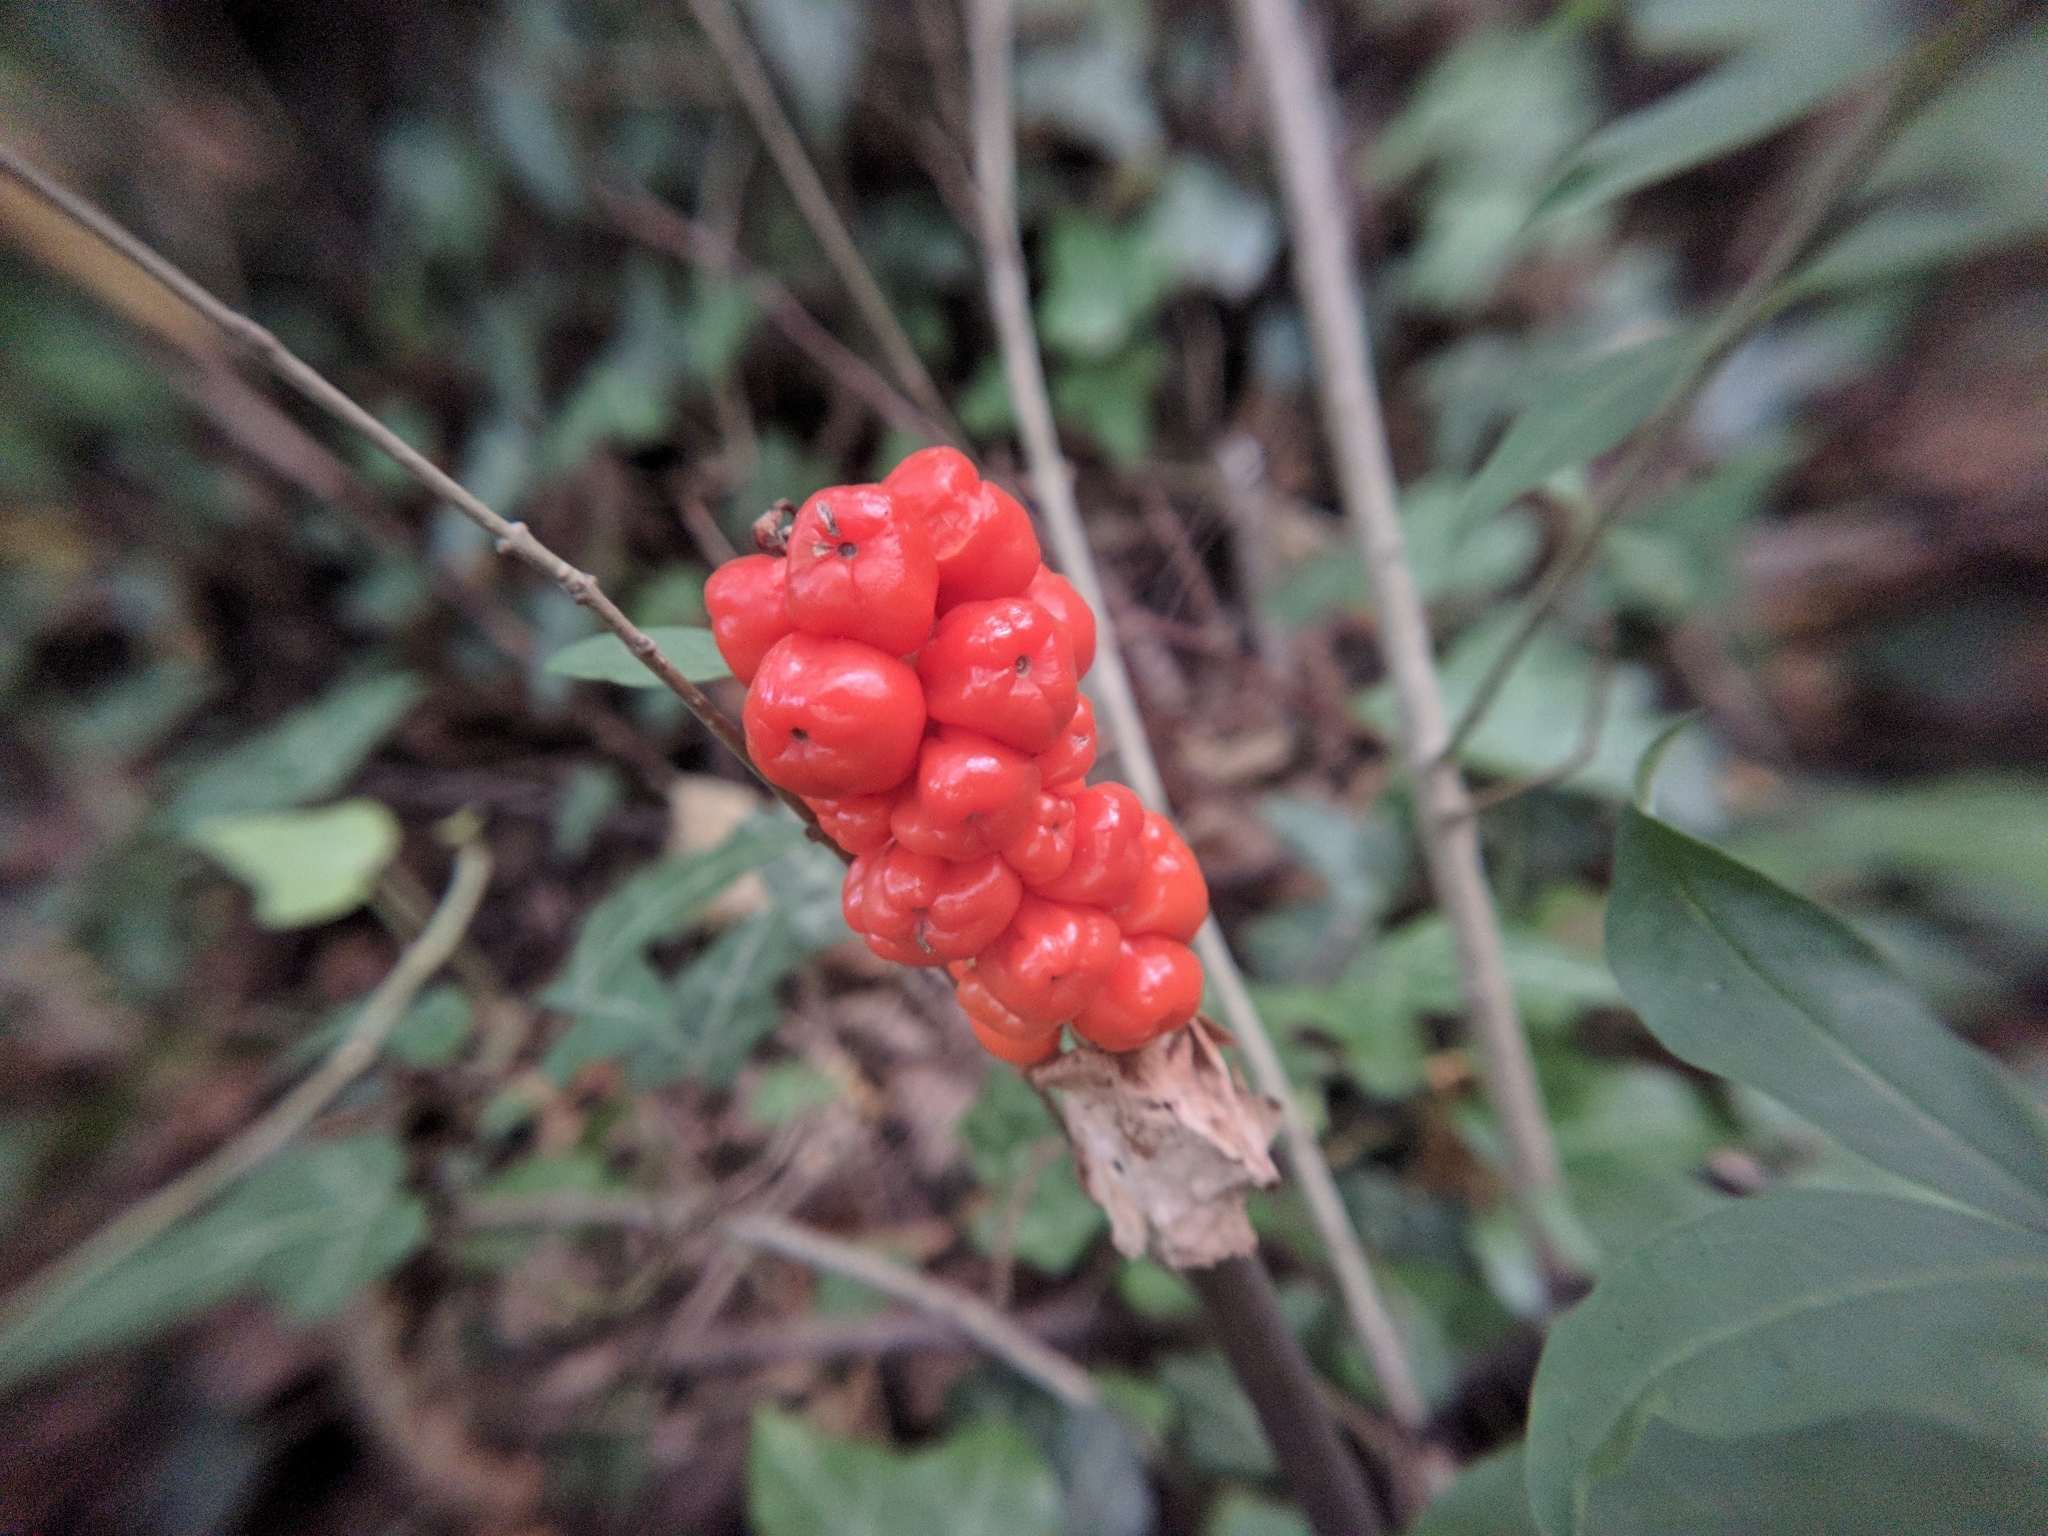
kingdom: Plantae
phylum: Tracheophyta
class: Liliopsida
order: Alismatales
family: Araceae
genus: Arum
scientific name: Arum
